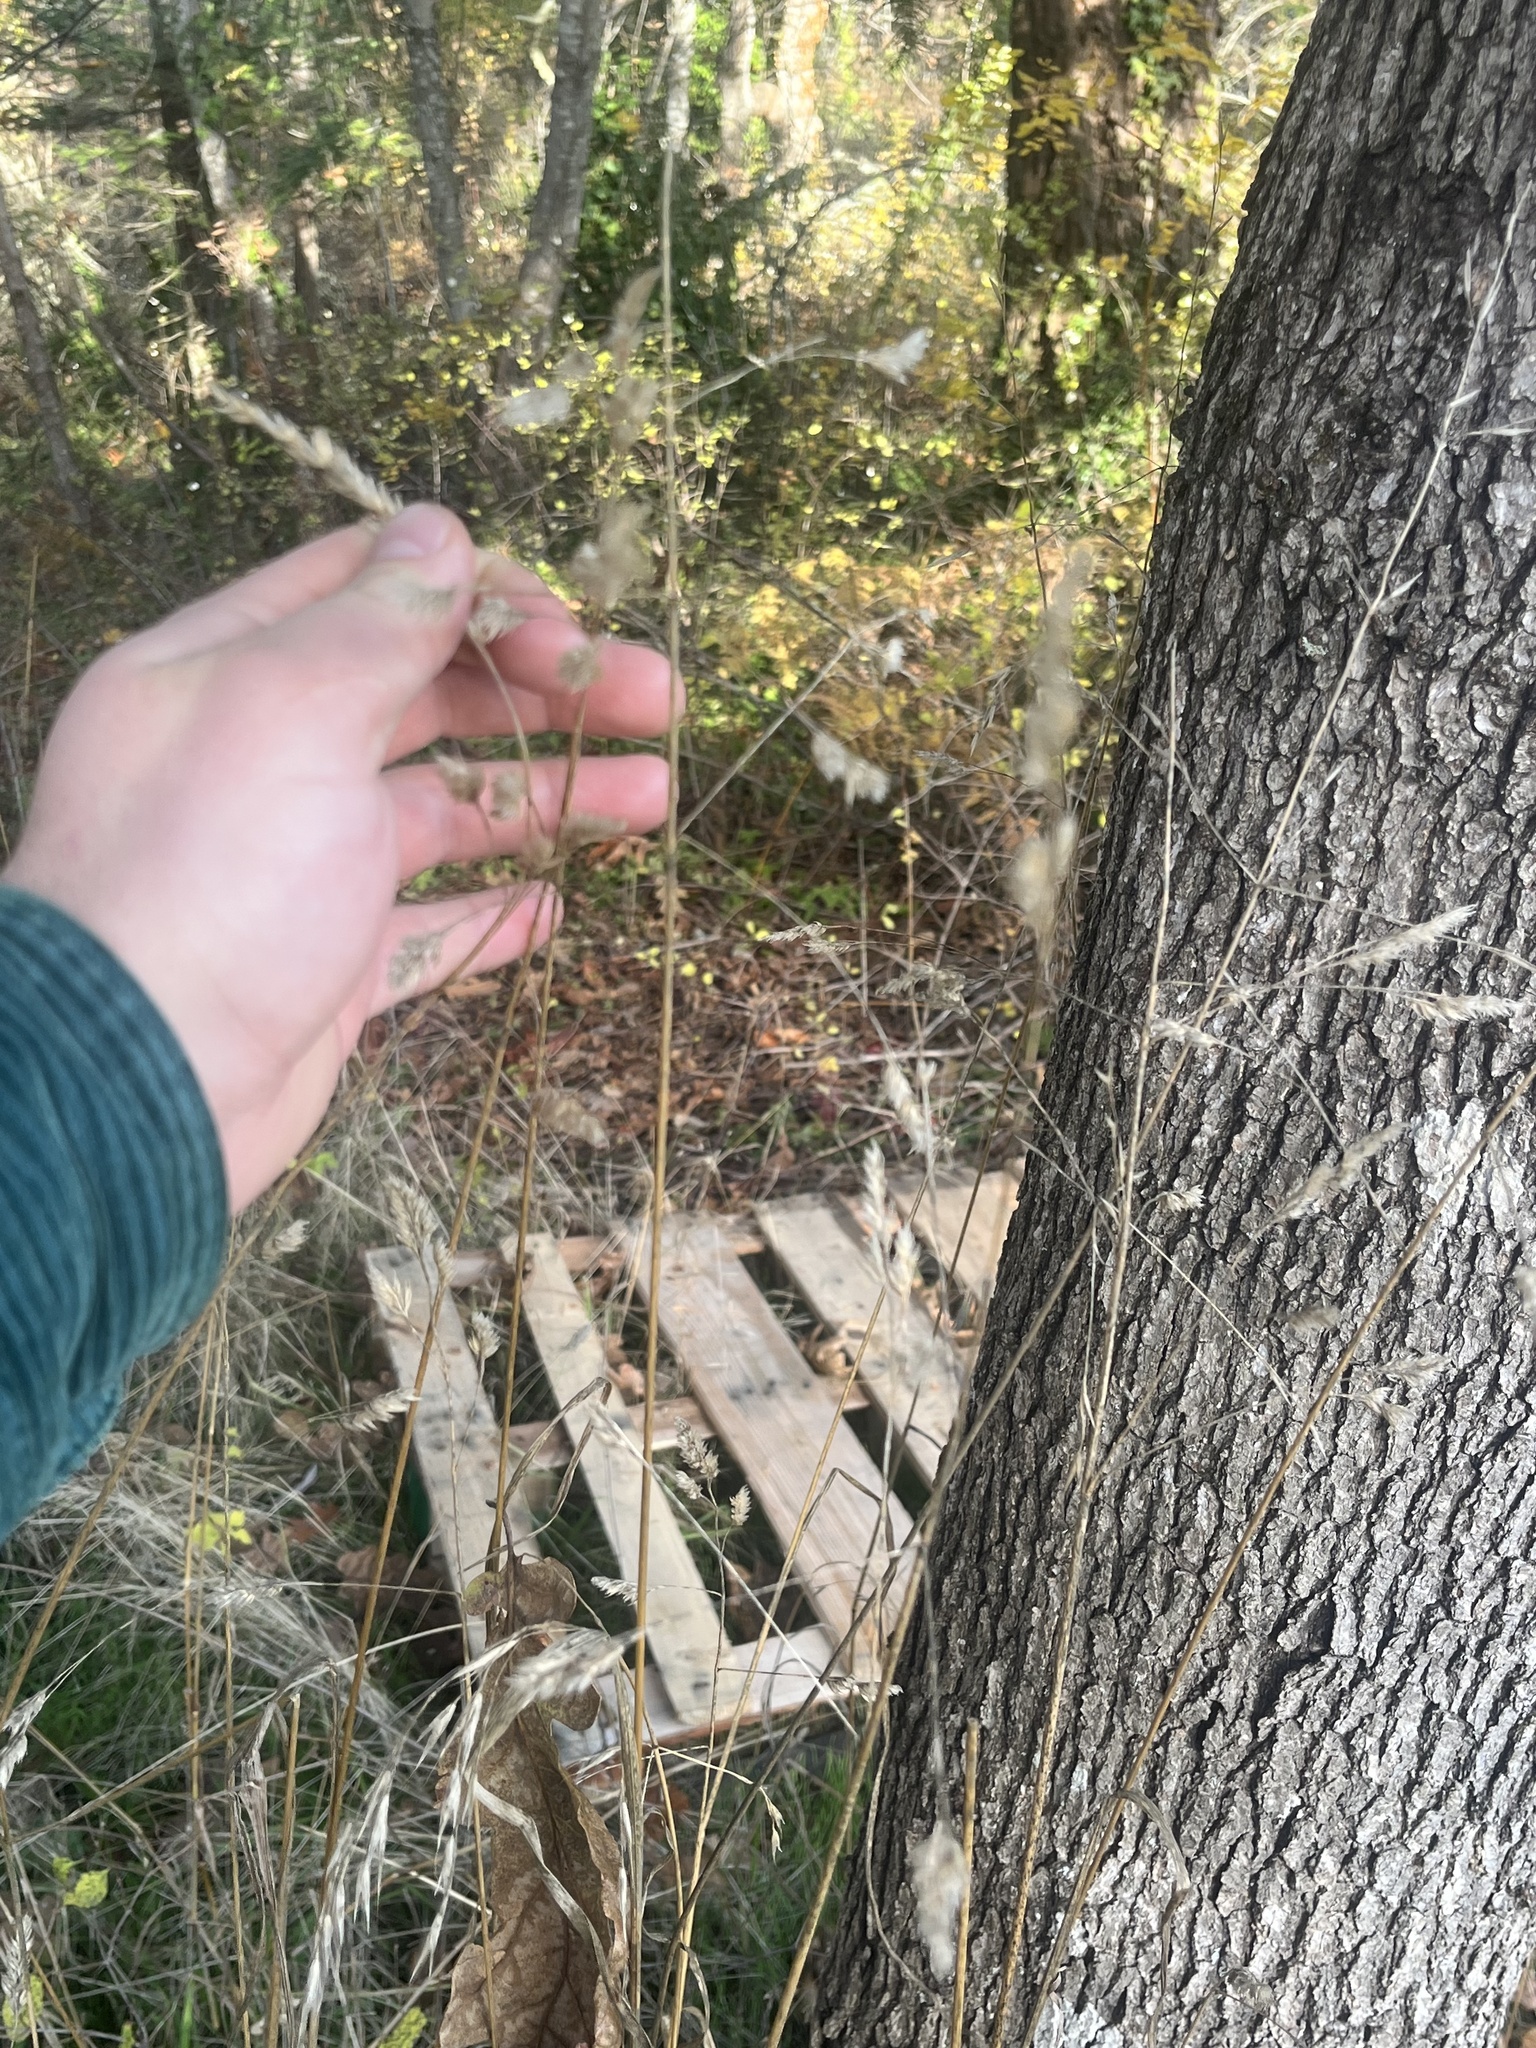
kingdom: Plantae
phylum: Tracheophyta
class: Liliopsida
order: Poales
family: Poaceae
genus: Dactylis
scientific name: Dactylis glomerata
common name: Orchardgrass
